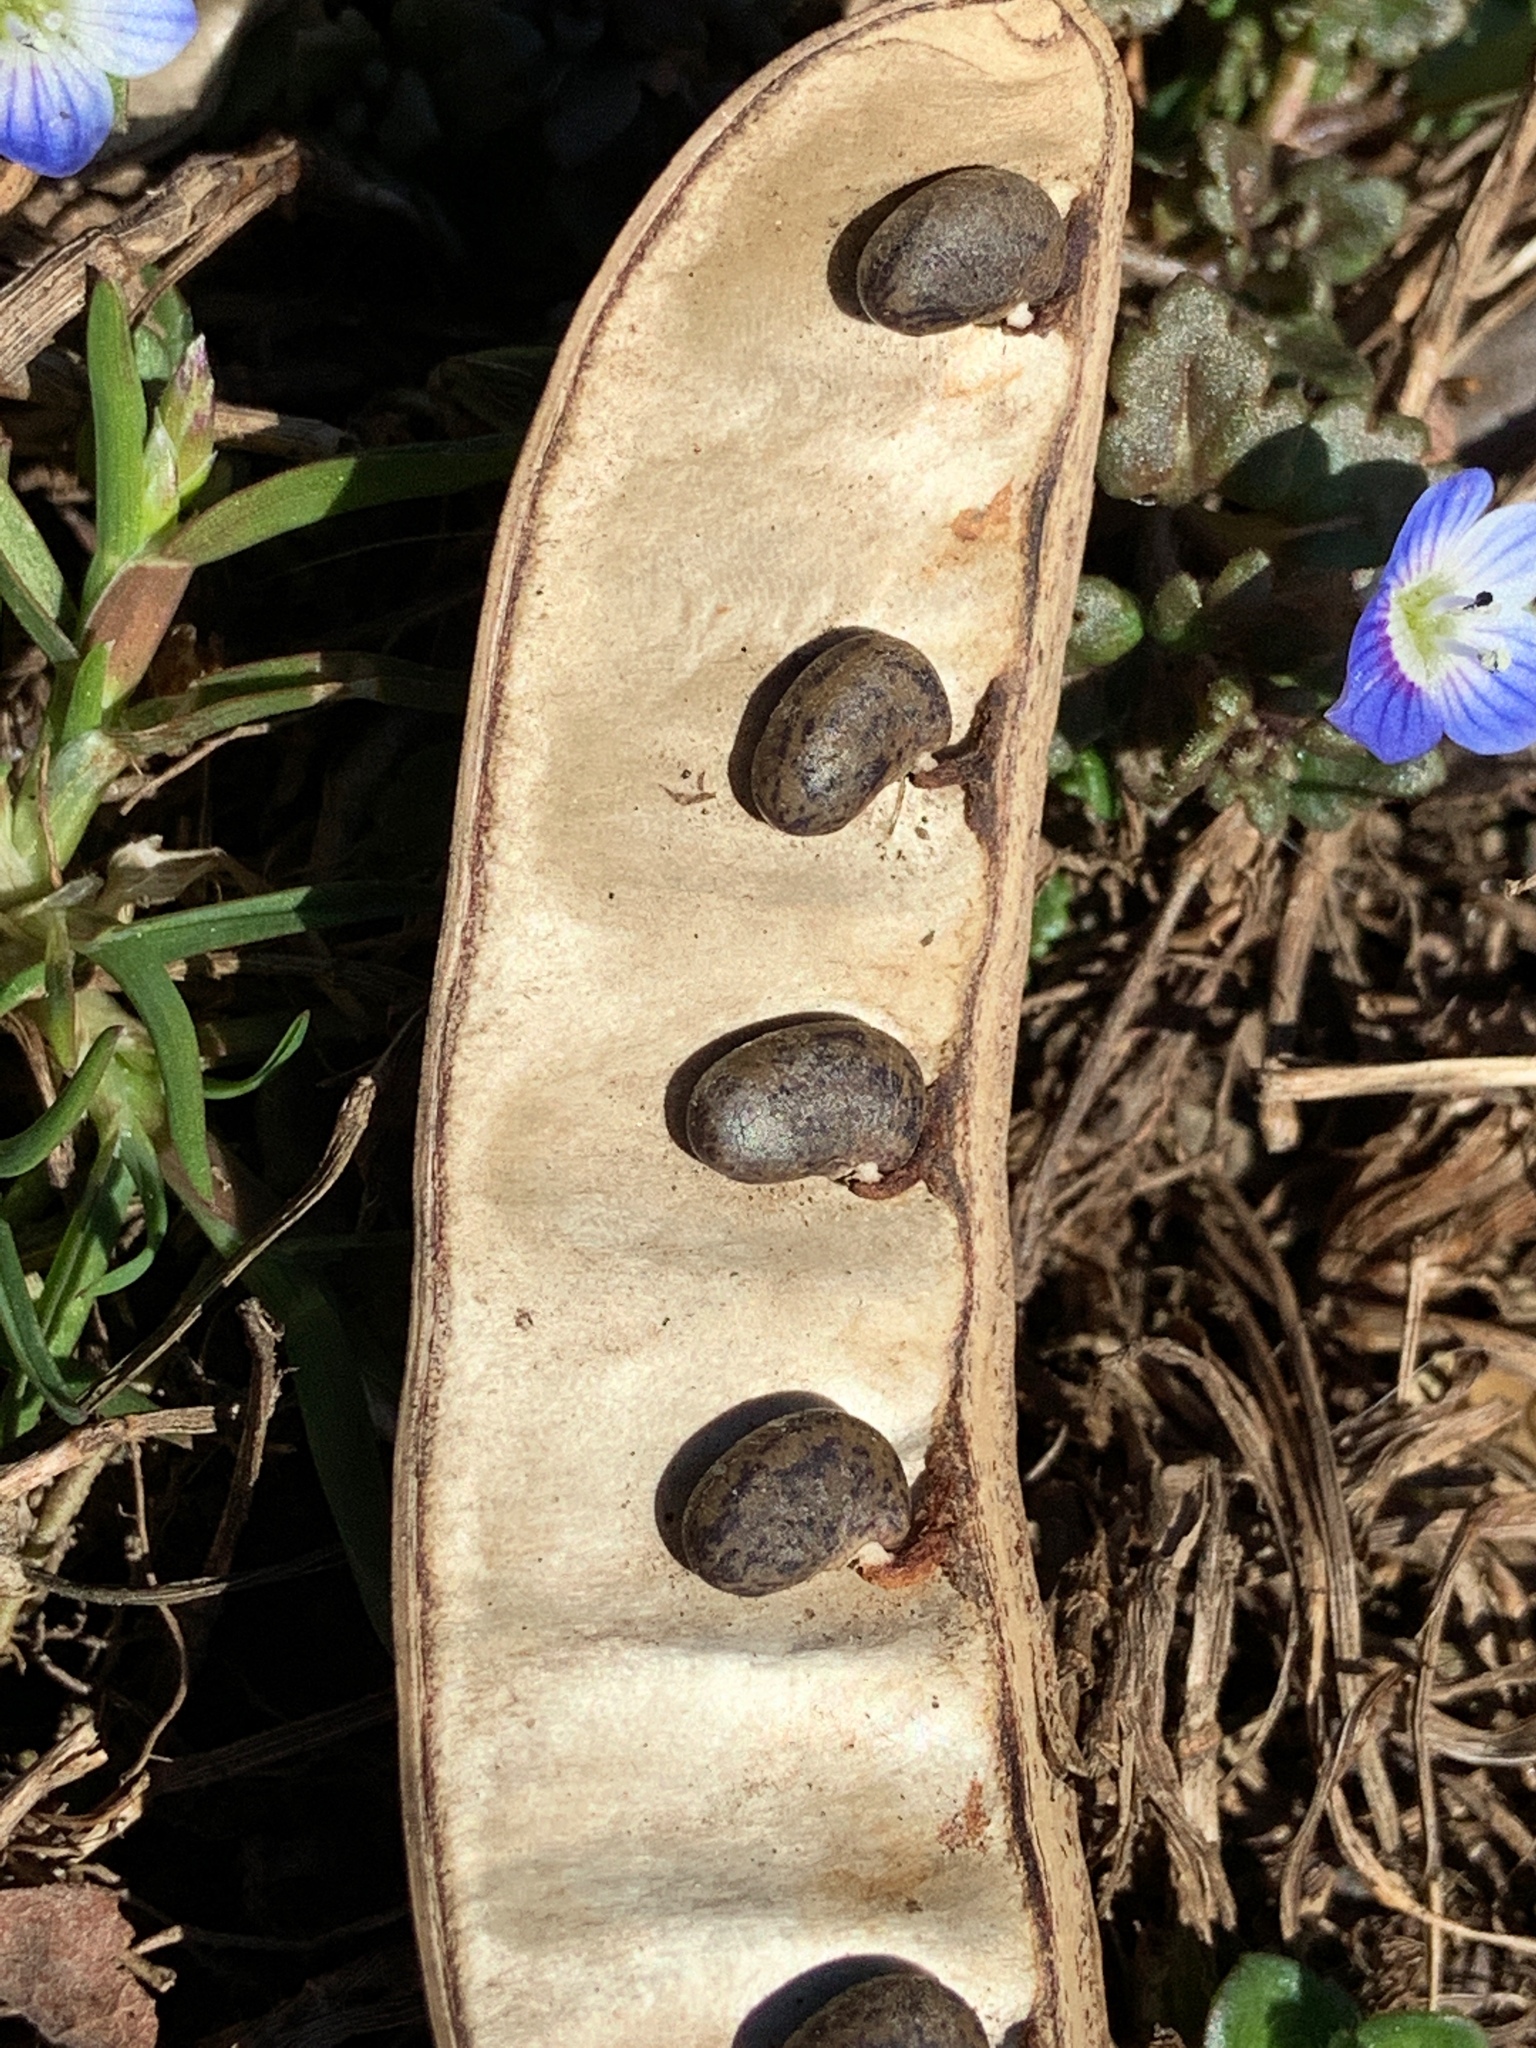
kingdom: Plantae
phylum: Tracheophyta
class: Magnoliopsida
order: Fabales
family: Fabaceae
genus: Robinia
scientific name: Robinia pseudoacacia
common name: Black locust
